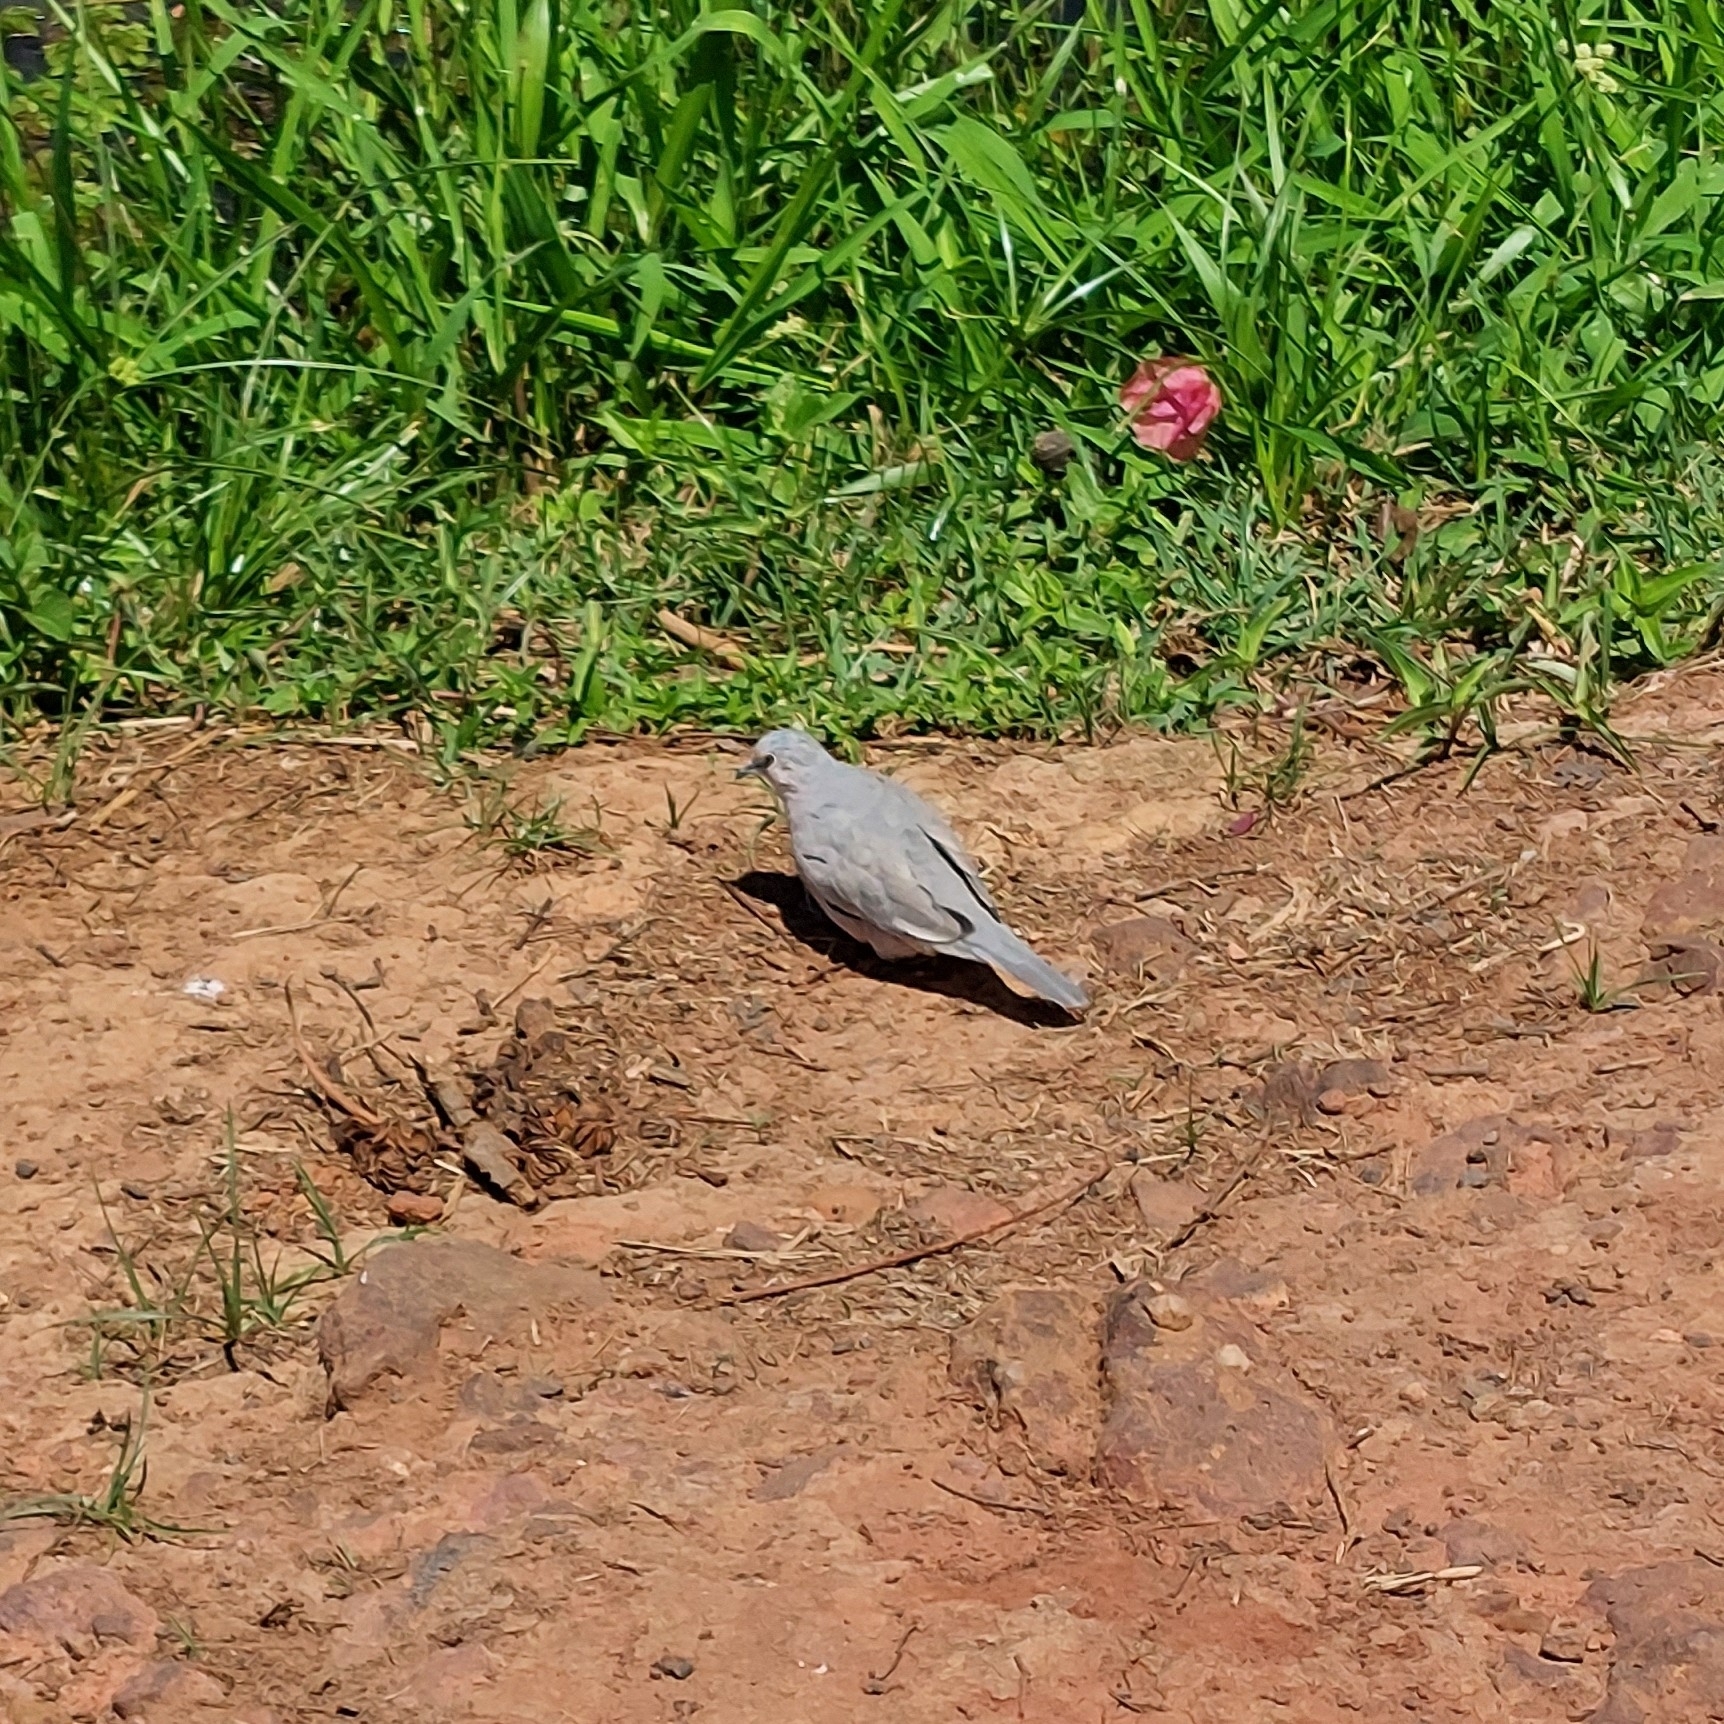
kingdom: Animalia
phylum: Chordata
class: Aves
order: Columbiformes
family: Columbidae
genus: Columbina
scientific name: Columbina picui
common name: Picui ground dove
